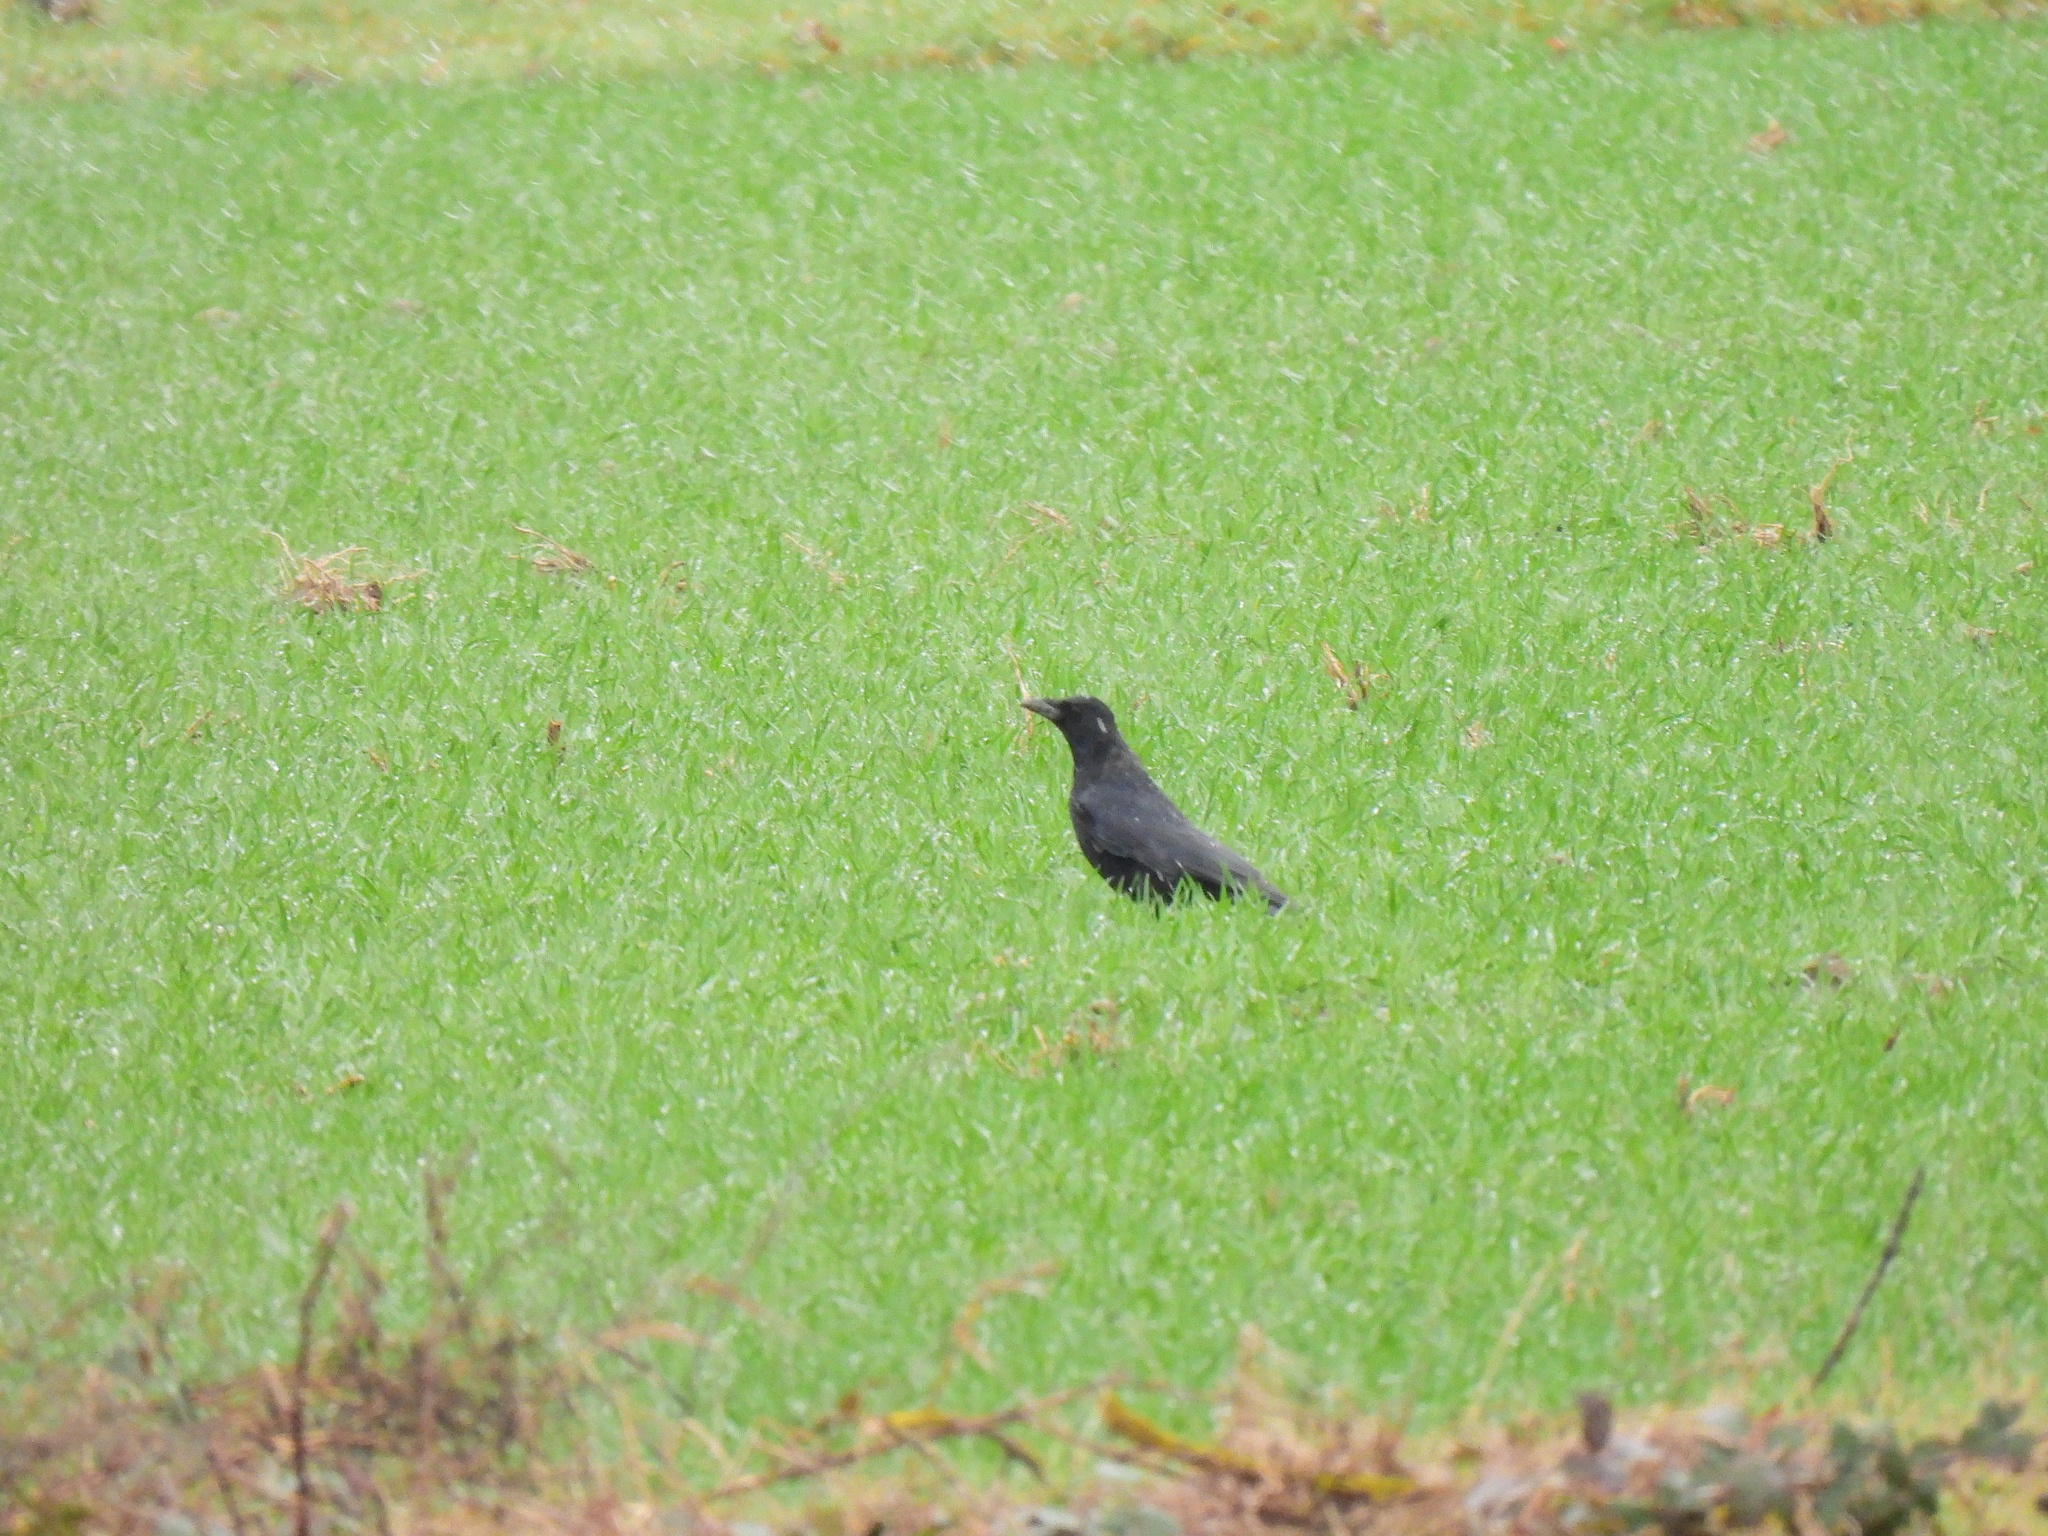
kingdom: Animalia
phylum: Chordata
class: Aves
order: Passeriformes
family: Corvidae
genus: Corvus
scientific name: Corvus corone
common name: Carrion crow
